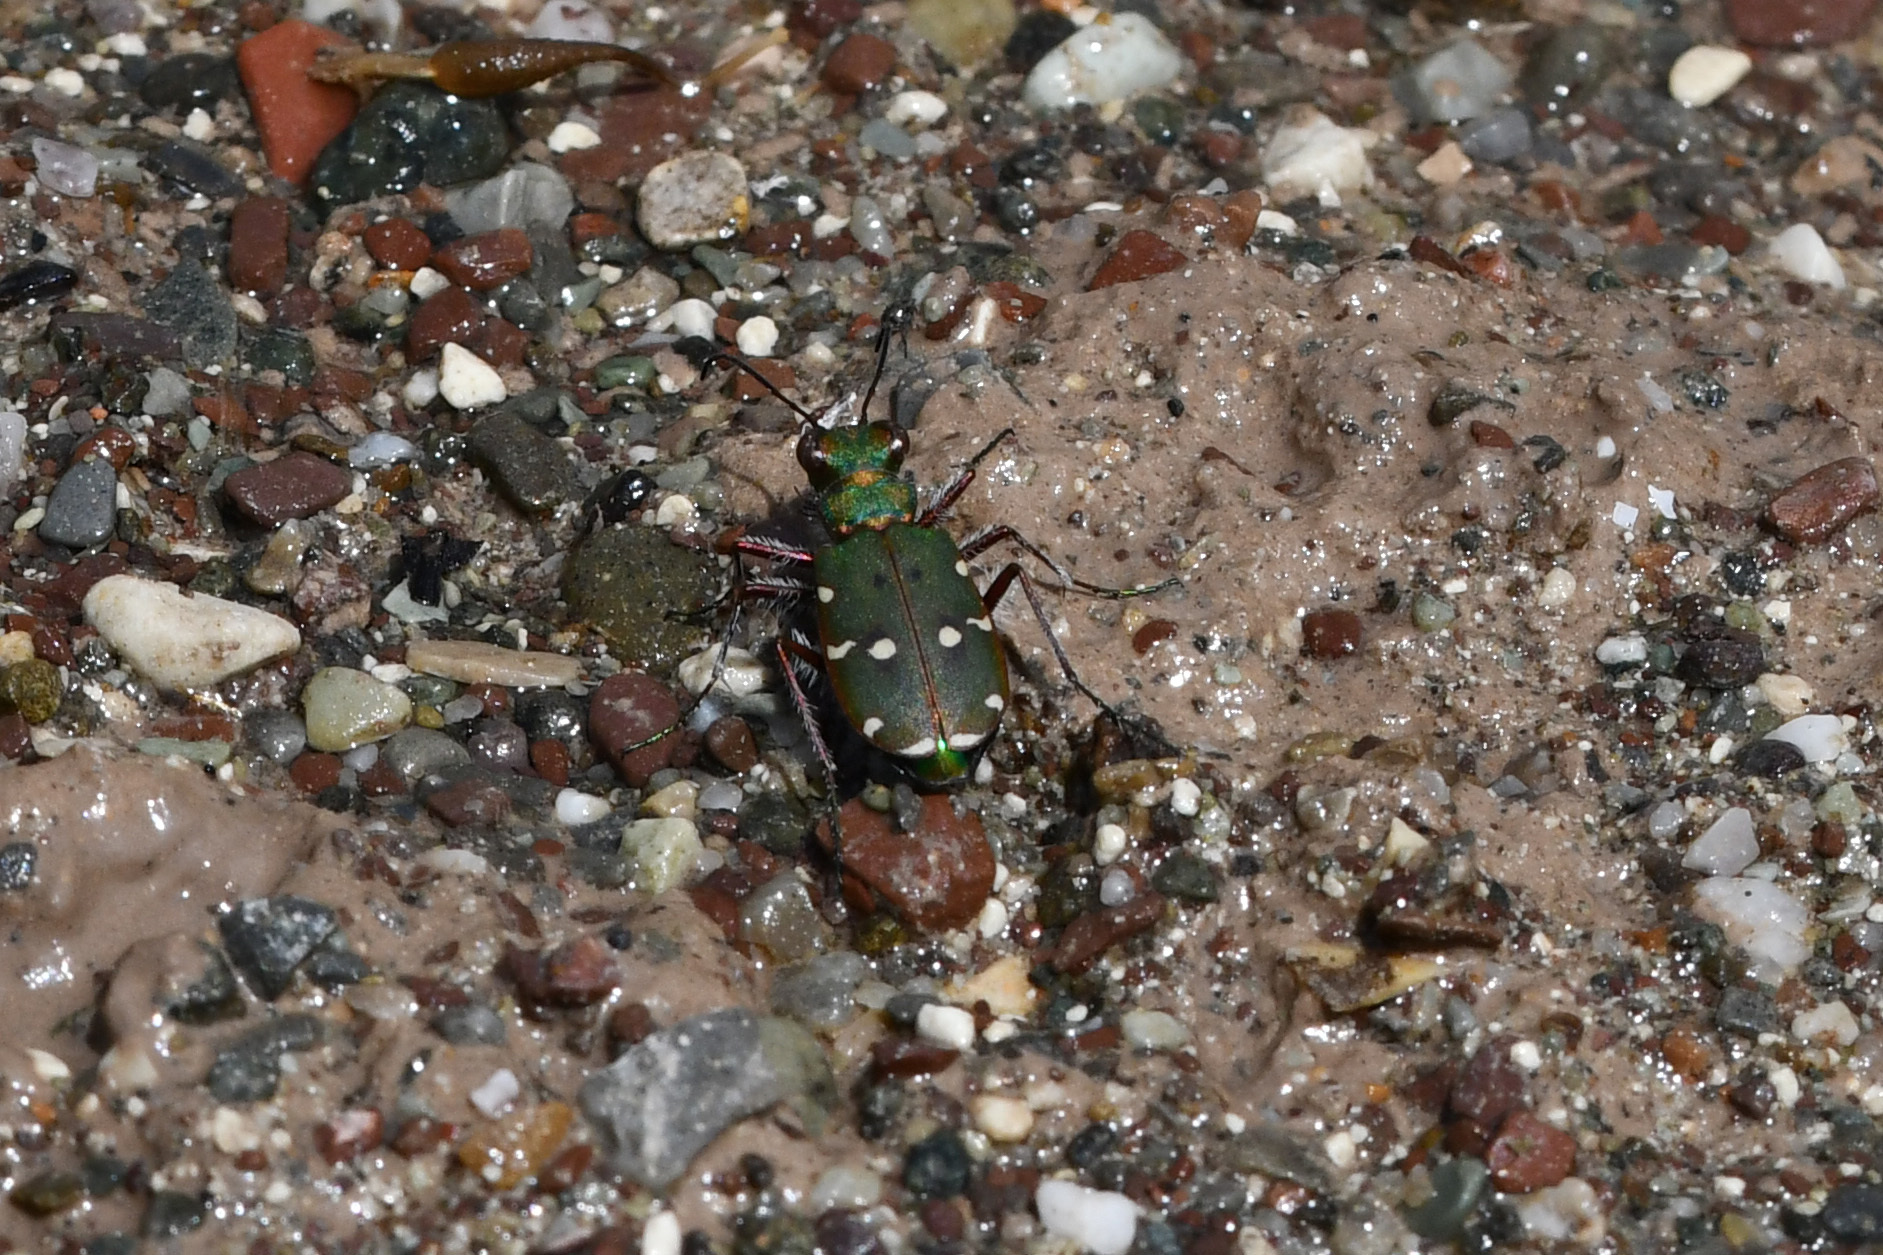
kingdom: Animalia
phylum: Arthropoda
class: Insecta
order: Coleoptera
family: Carabidae
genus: Cicindela
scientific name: Cicindela campestris
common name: Common tiger beetle
